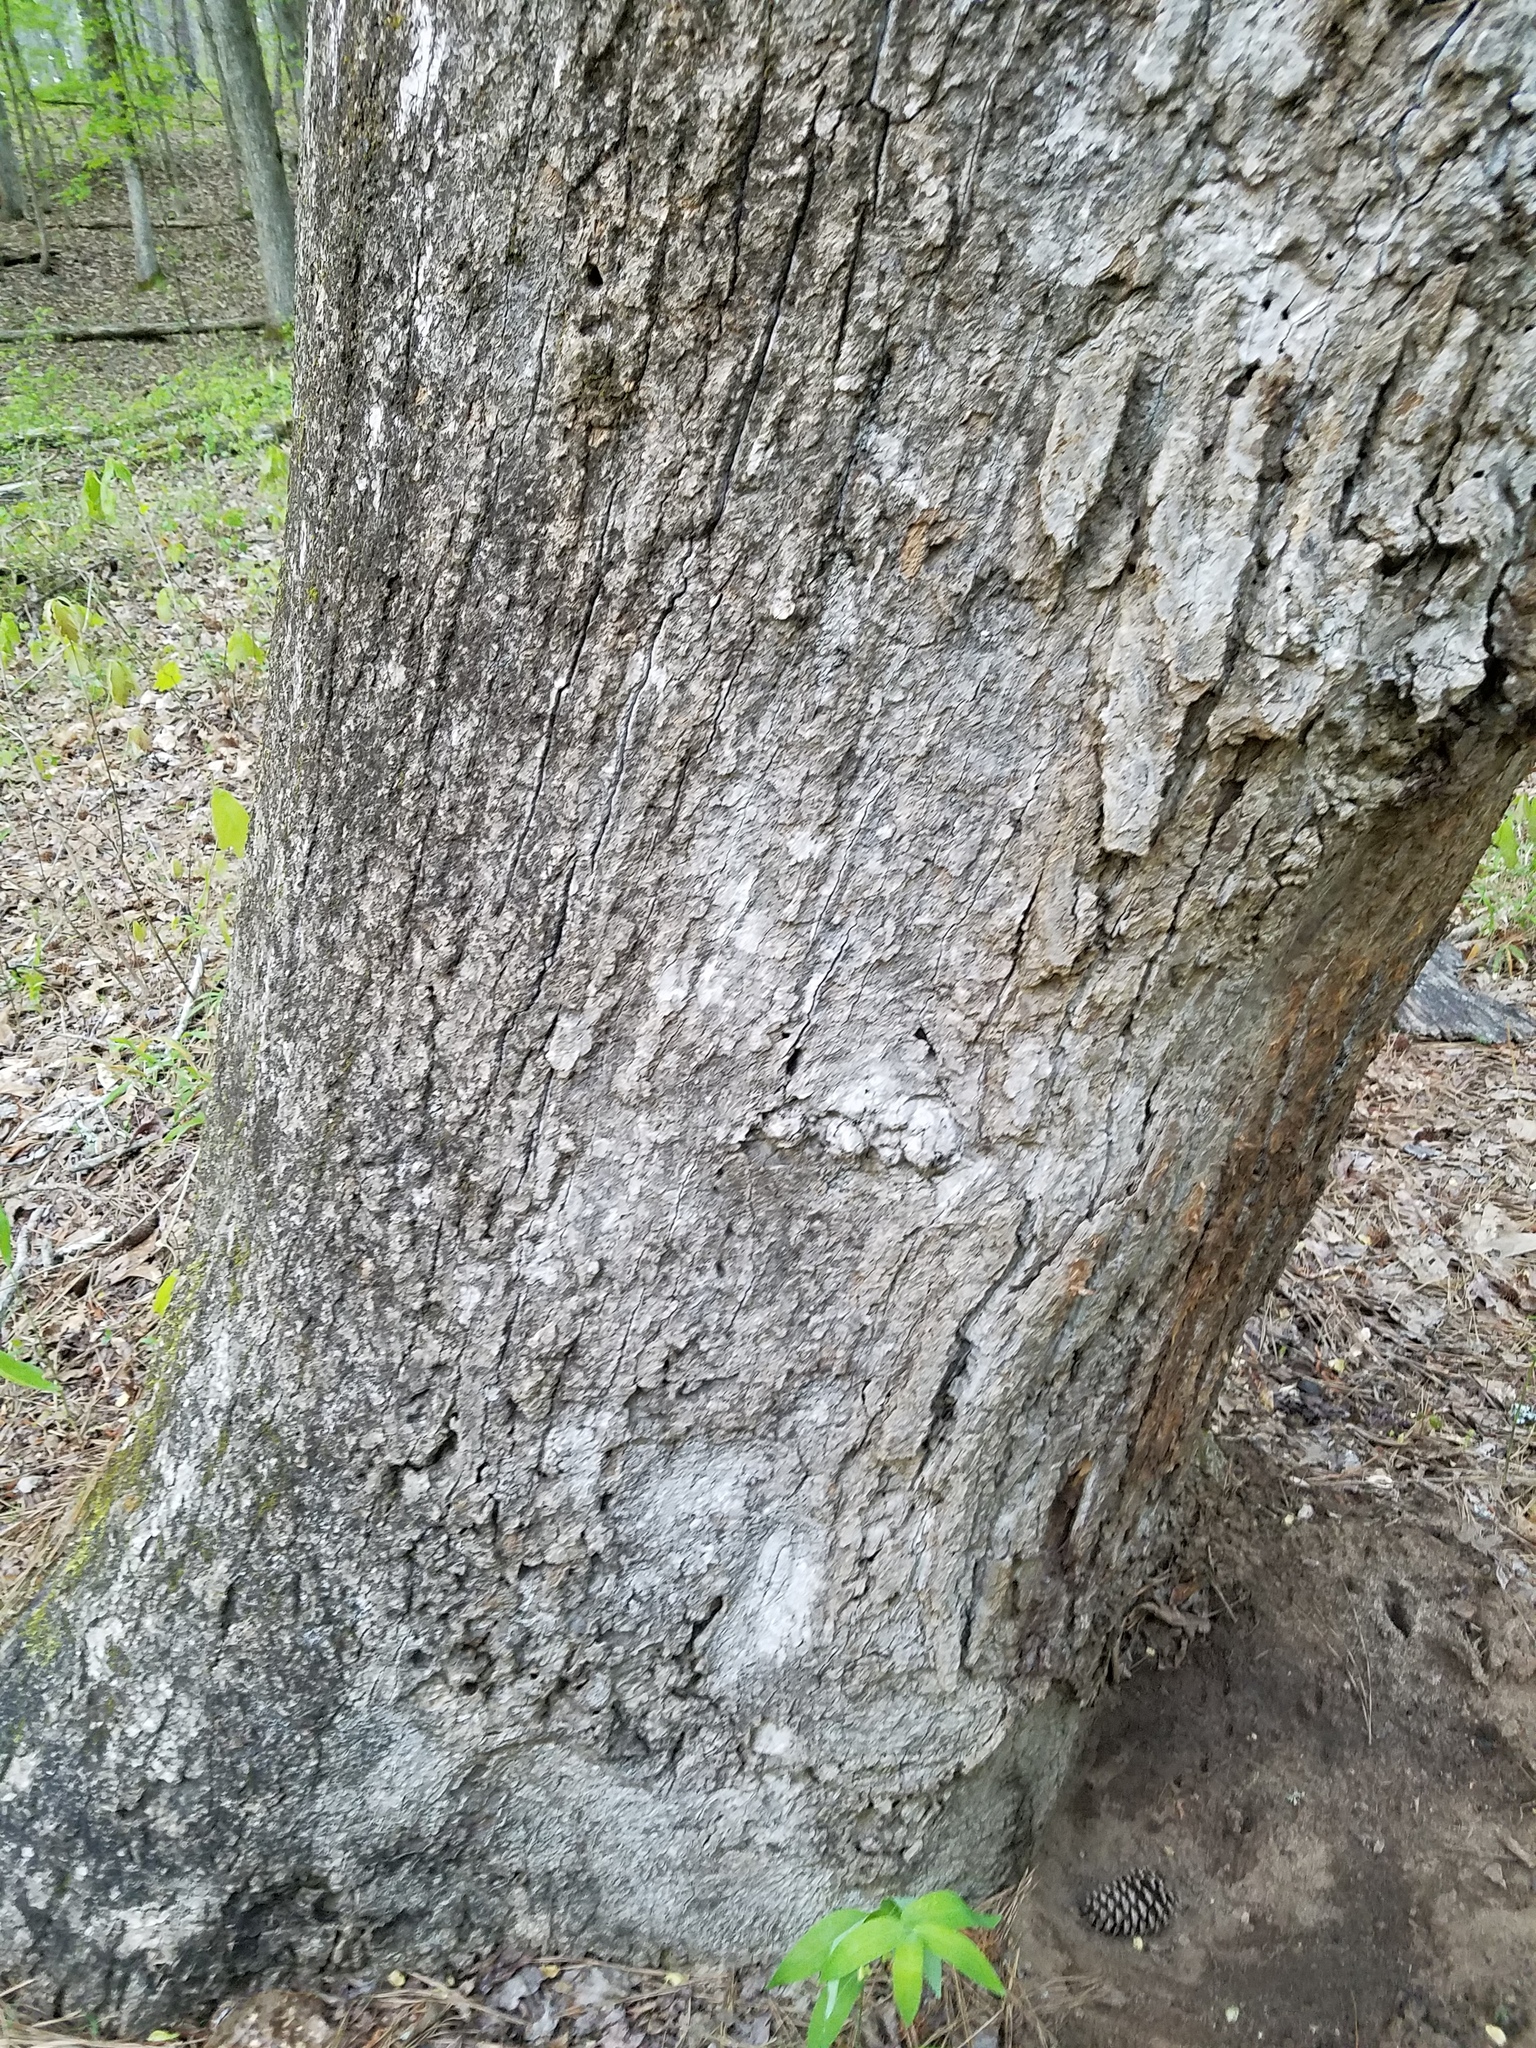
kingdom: Plantae
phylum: Tracheophyta
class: Magnoliopsida
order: Magnoliales
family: Magnoliaceae
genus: Liriodendron
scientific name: Liriodendron tulipifera
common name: Tulip tree
